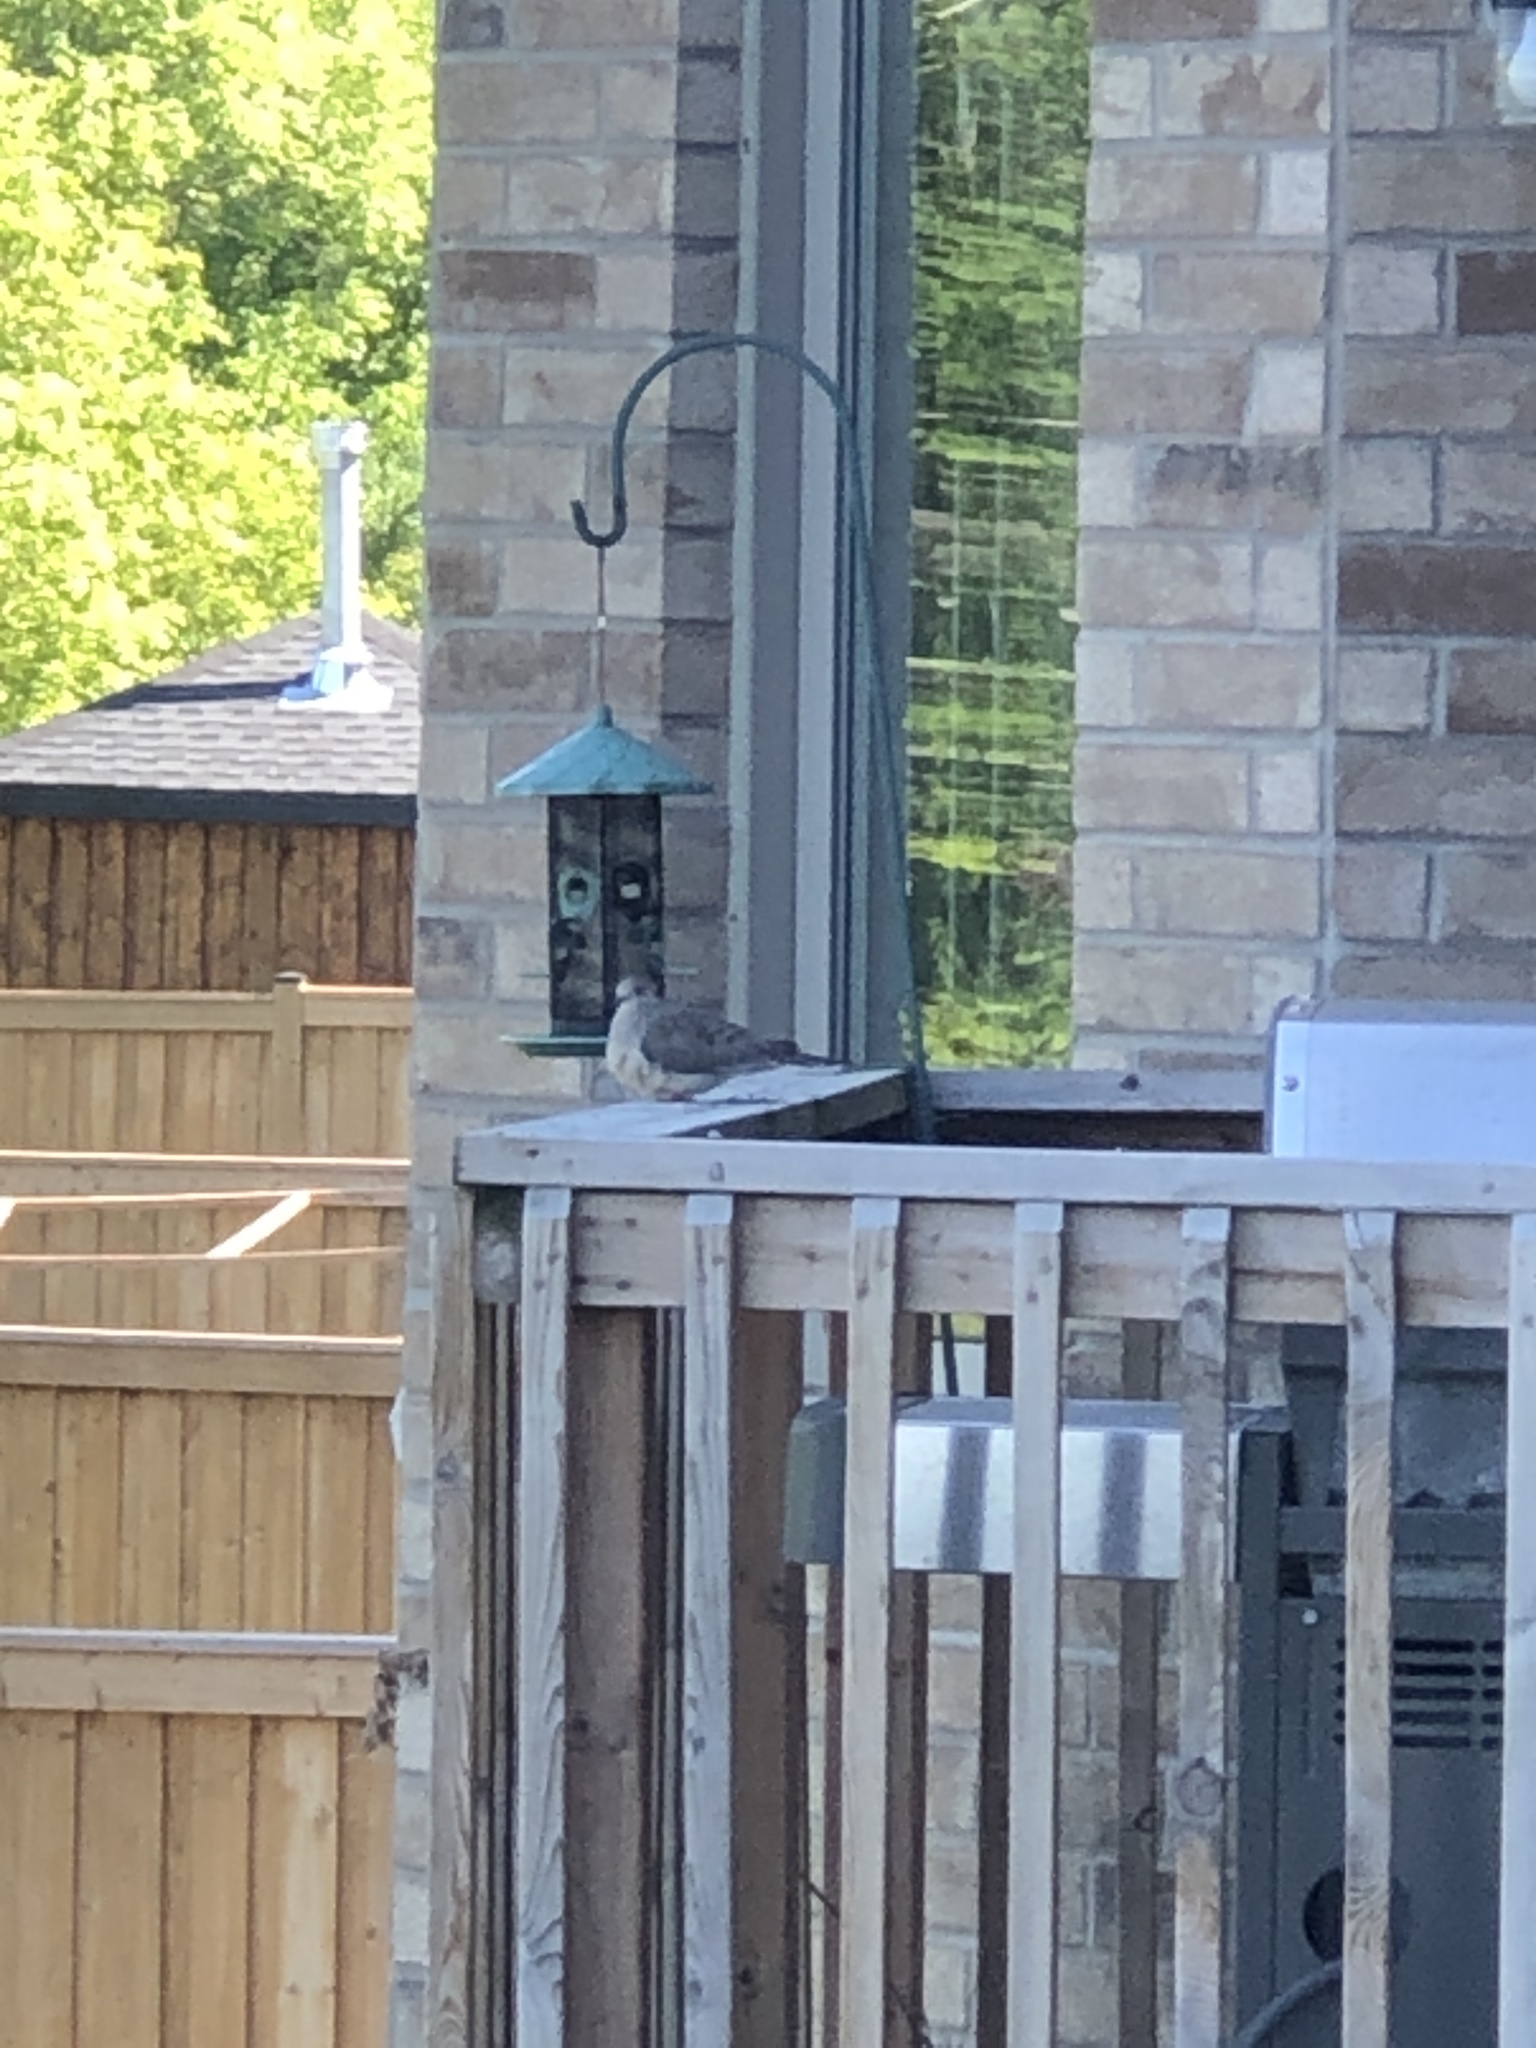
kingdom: Animalia
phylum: Chordata
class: Aves
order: Columbiformes
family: Columbidae
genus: Zenaida
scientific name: Zenaida macroura
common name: Mourning dove
